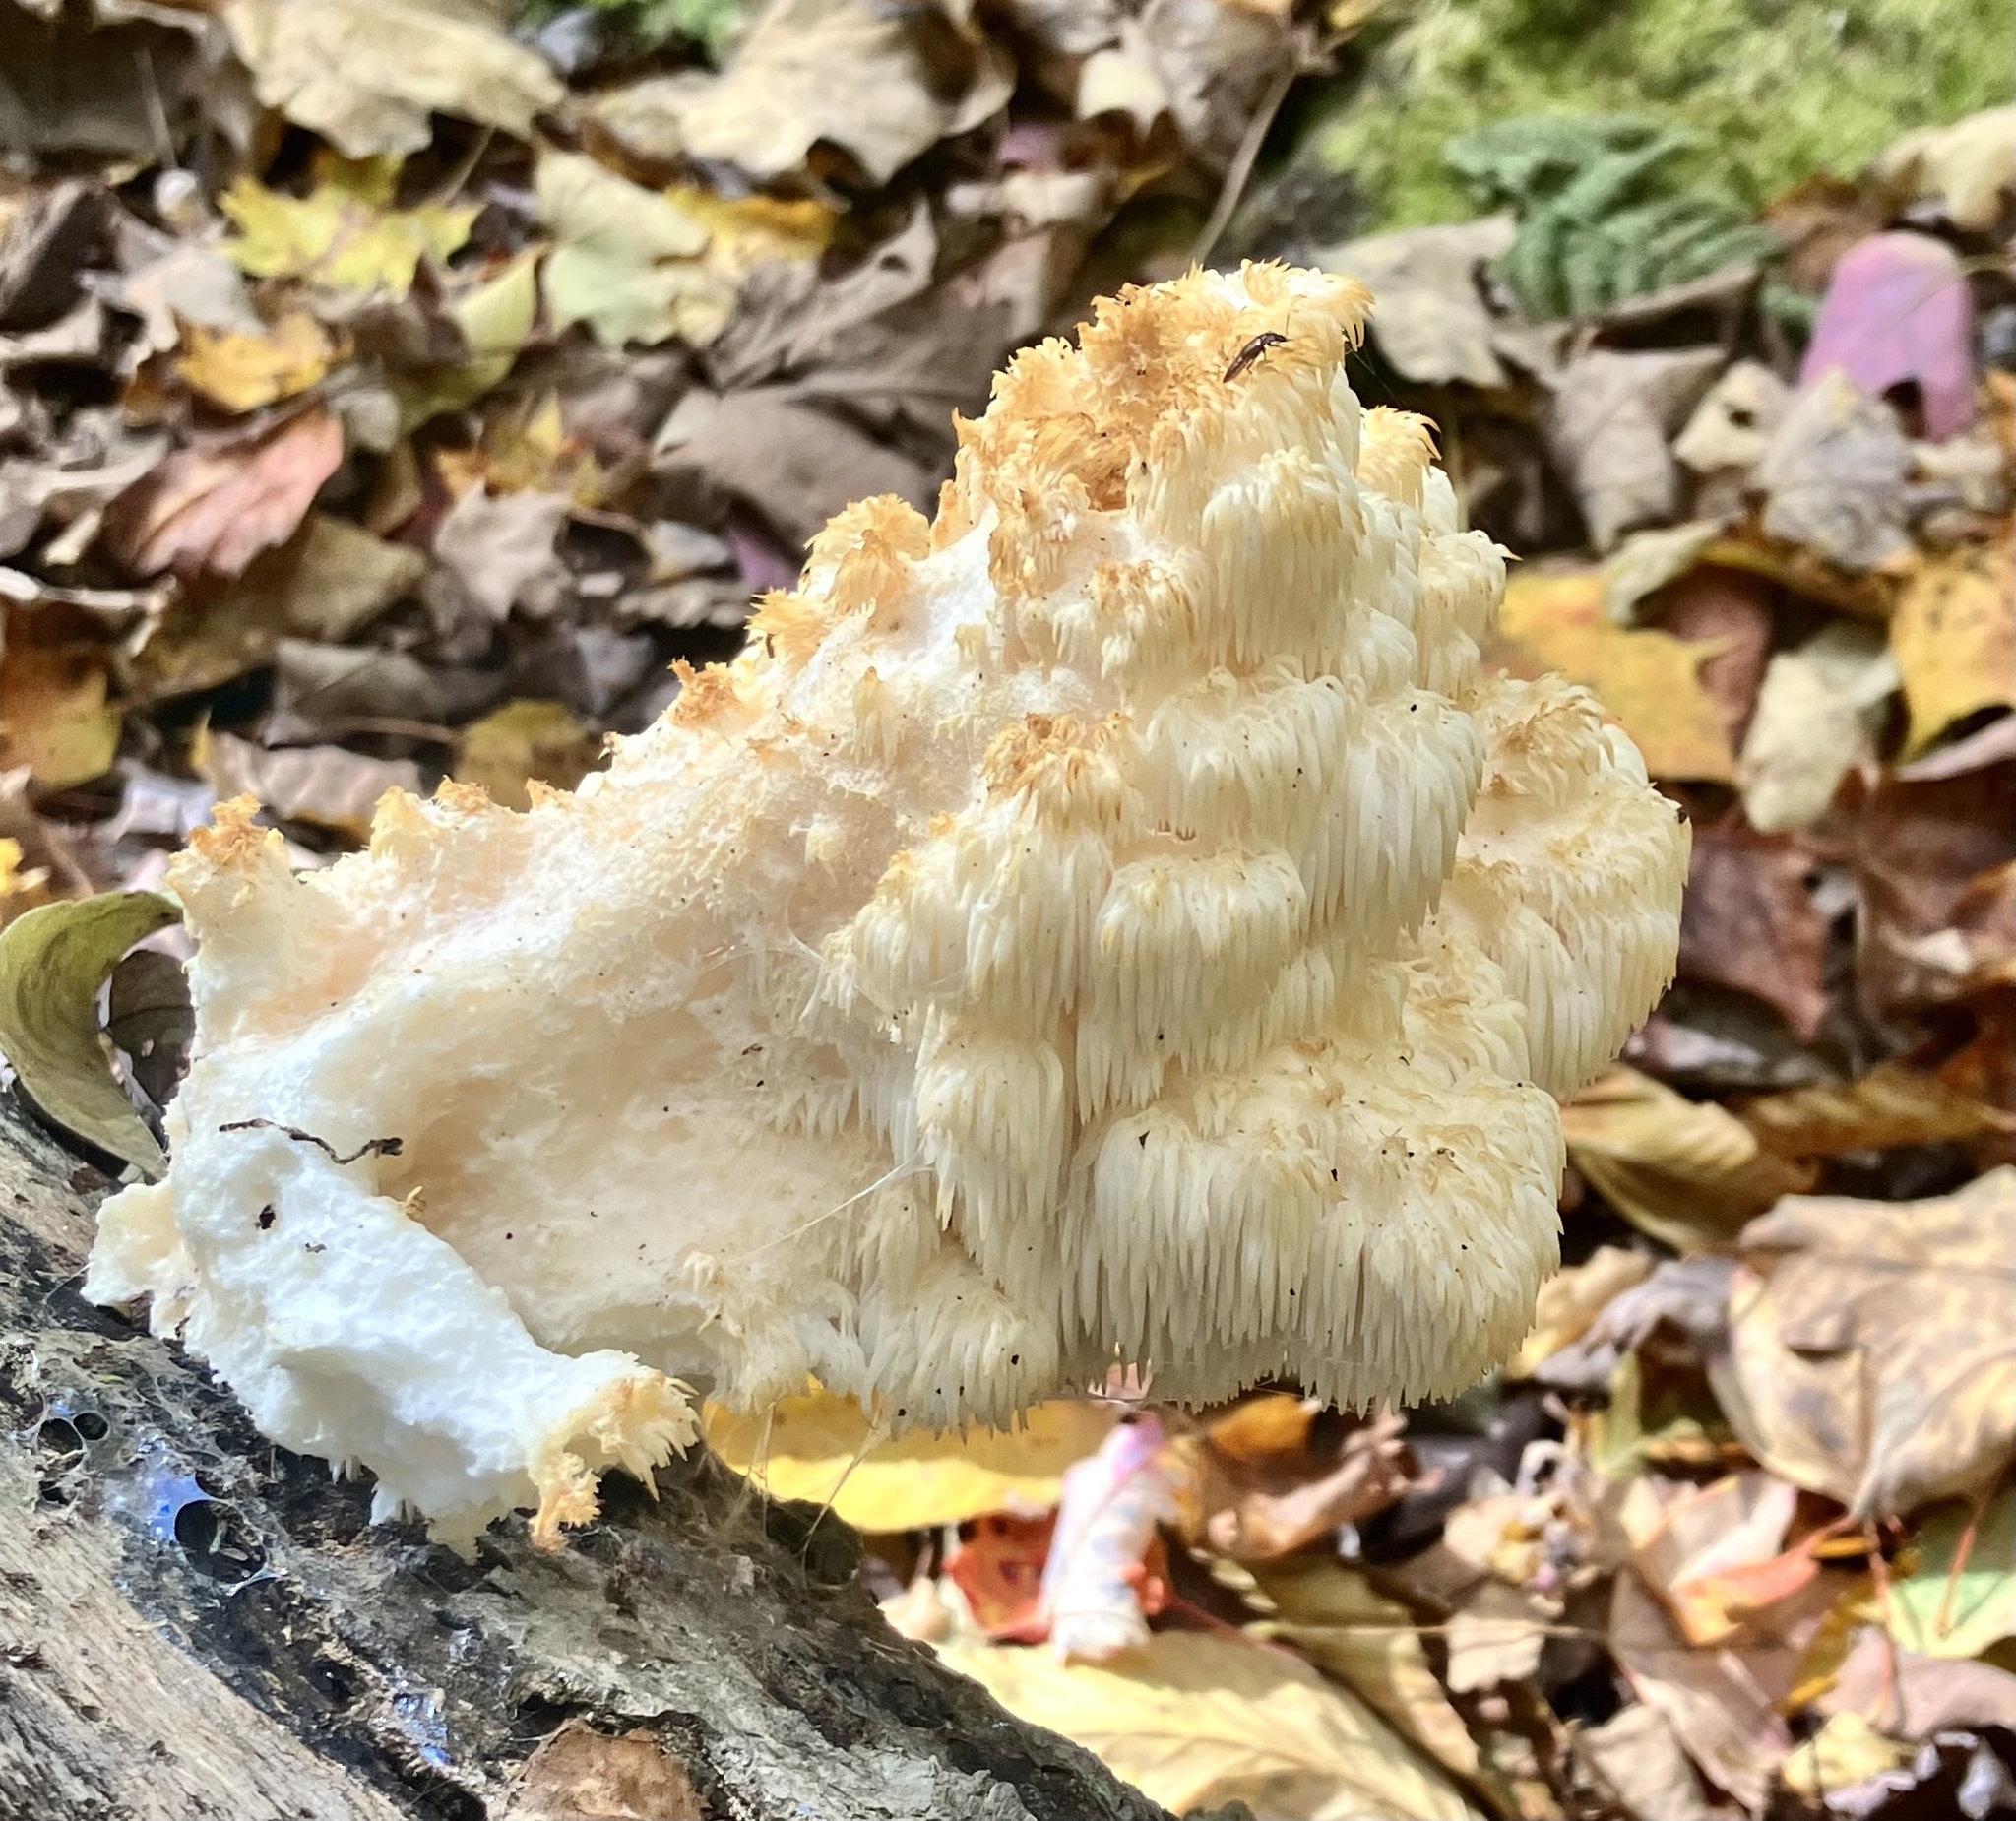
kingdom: Fungi
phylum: Basidiomycota
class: Agaricomycetes
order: Russulales
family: Hericiaceae
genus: Hericium
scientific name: Hericium americanum
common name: Bear's head tooth
